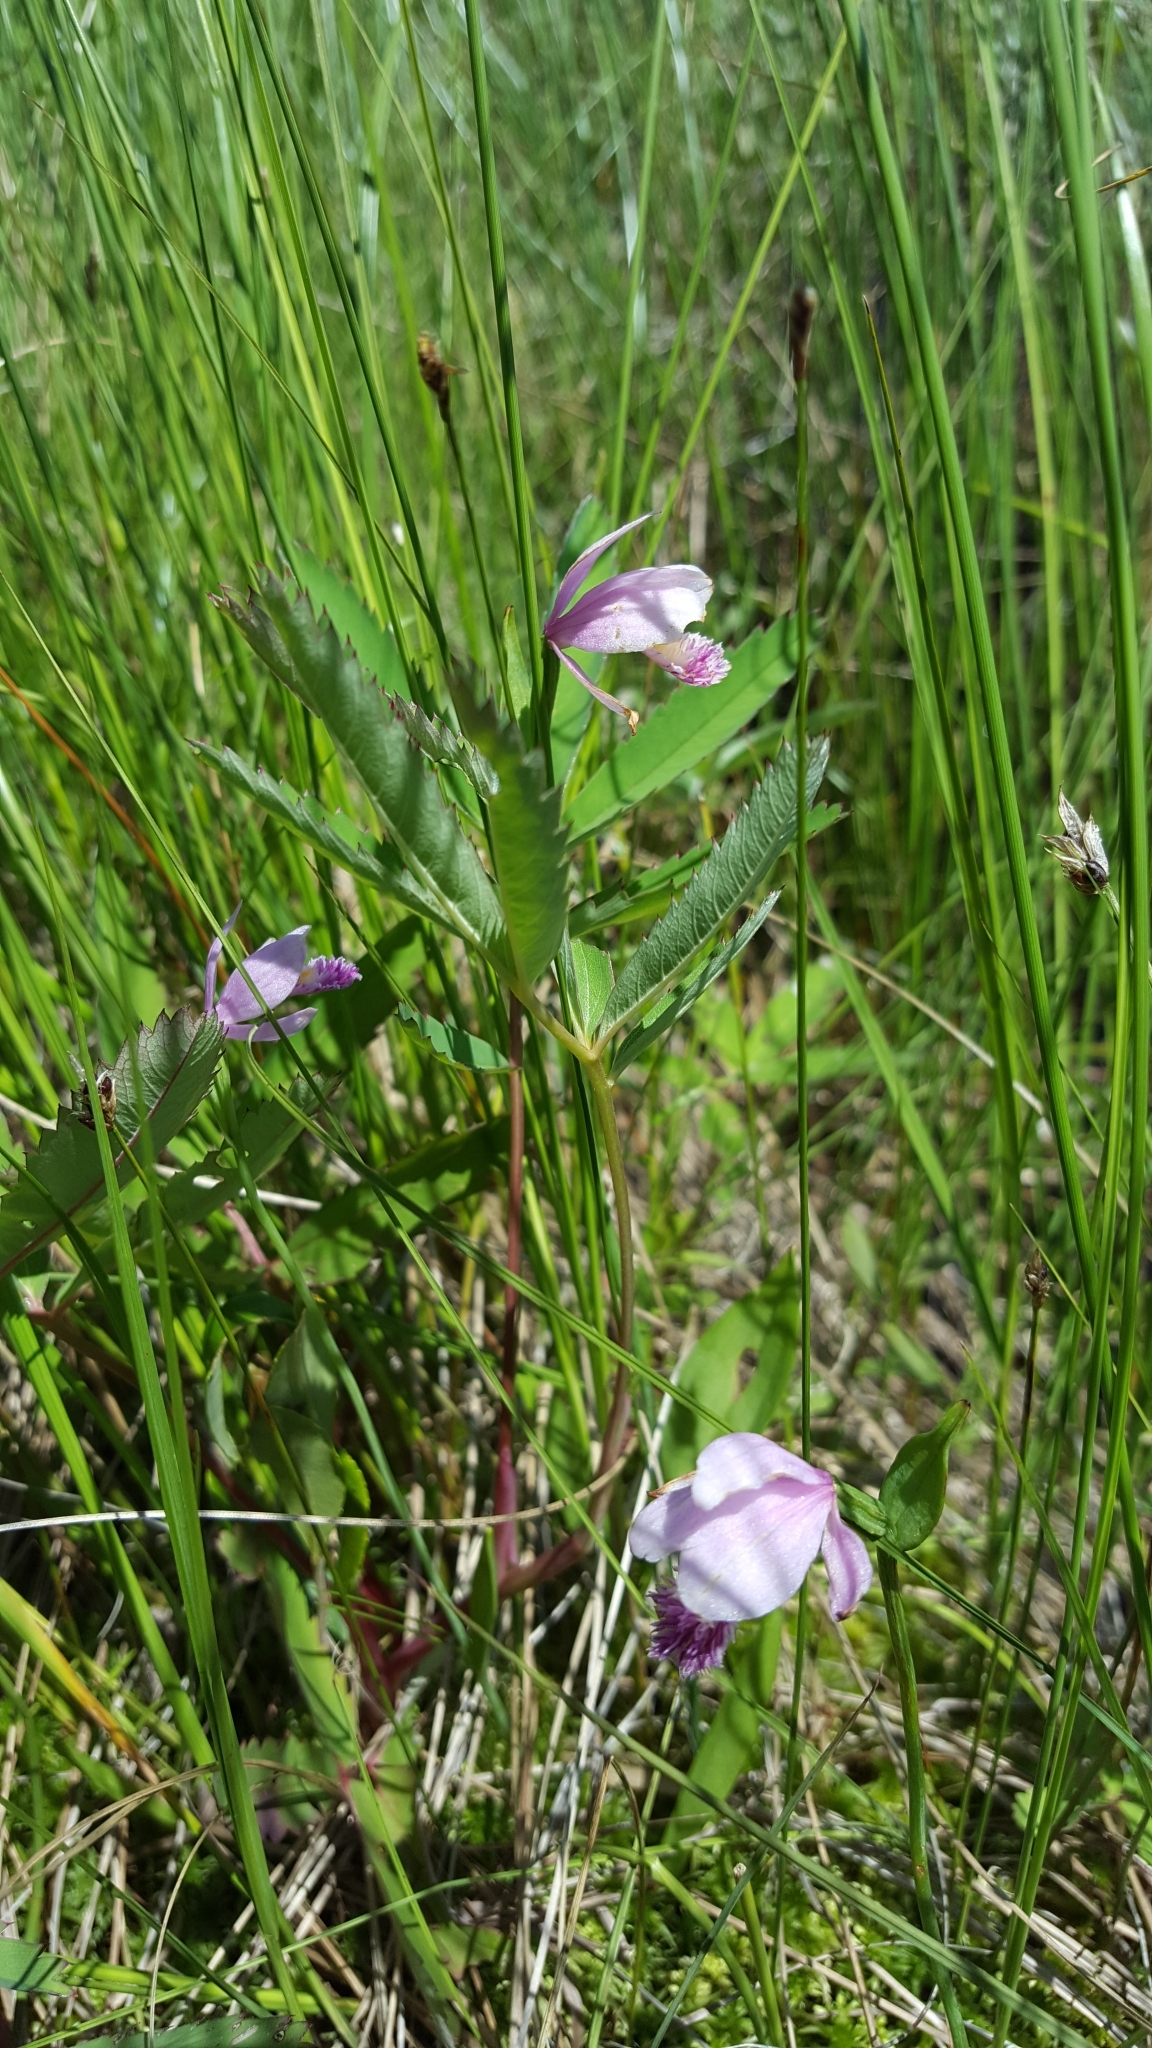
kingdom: Plantae
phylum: Tracheophyta
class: Liliopsida
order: Asparagales
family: Orchidaceae
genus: Pogonia
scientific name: Pogonia ophioglossoides
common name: Rose pogonia
